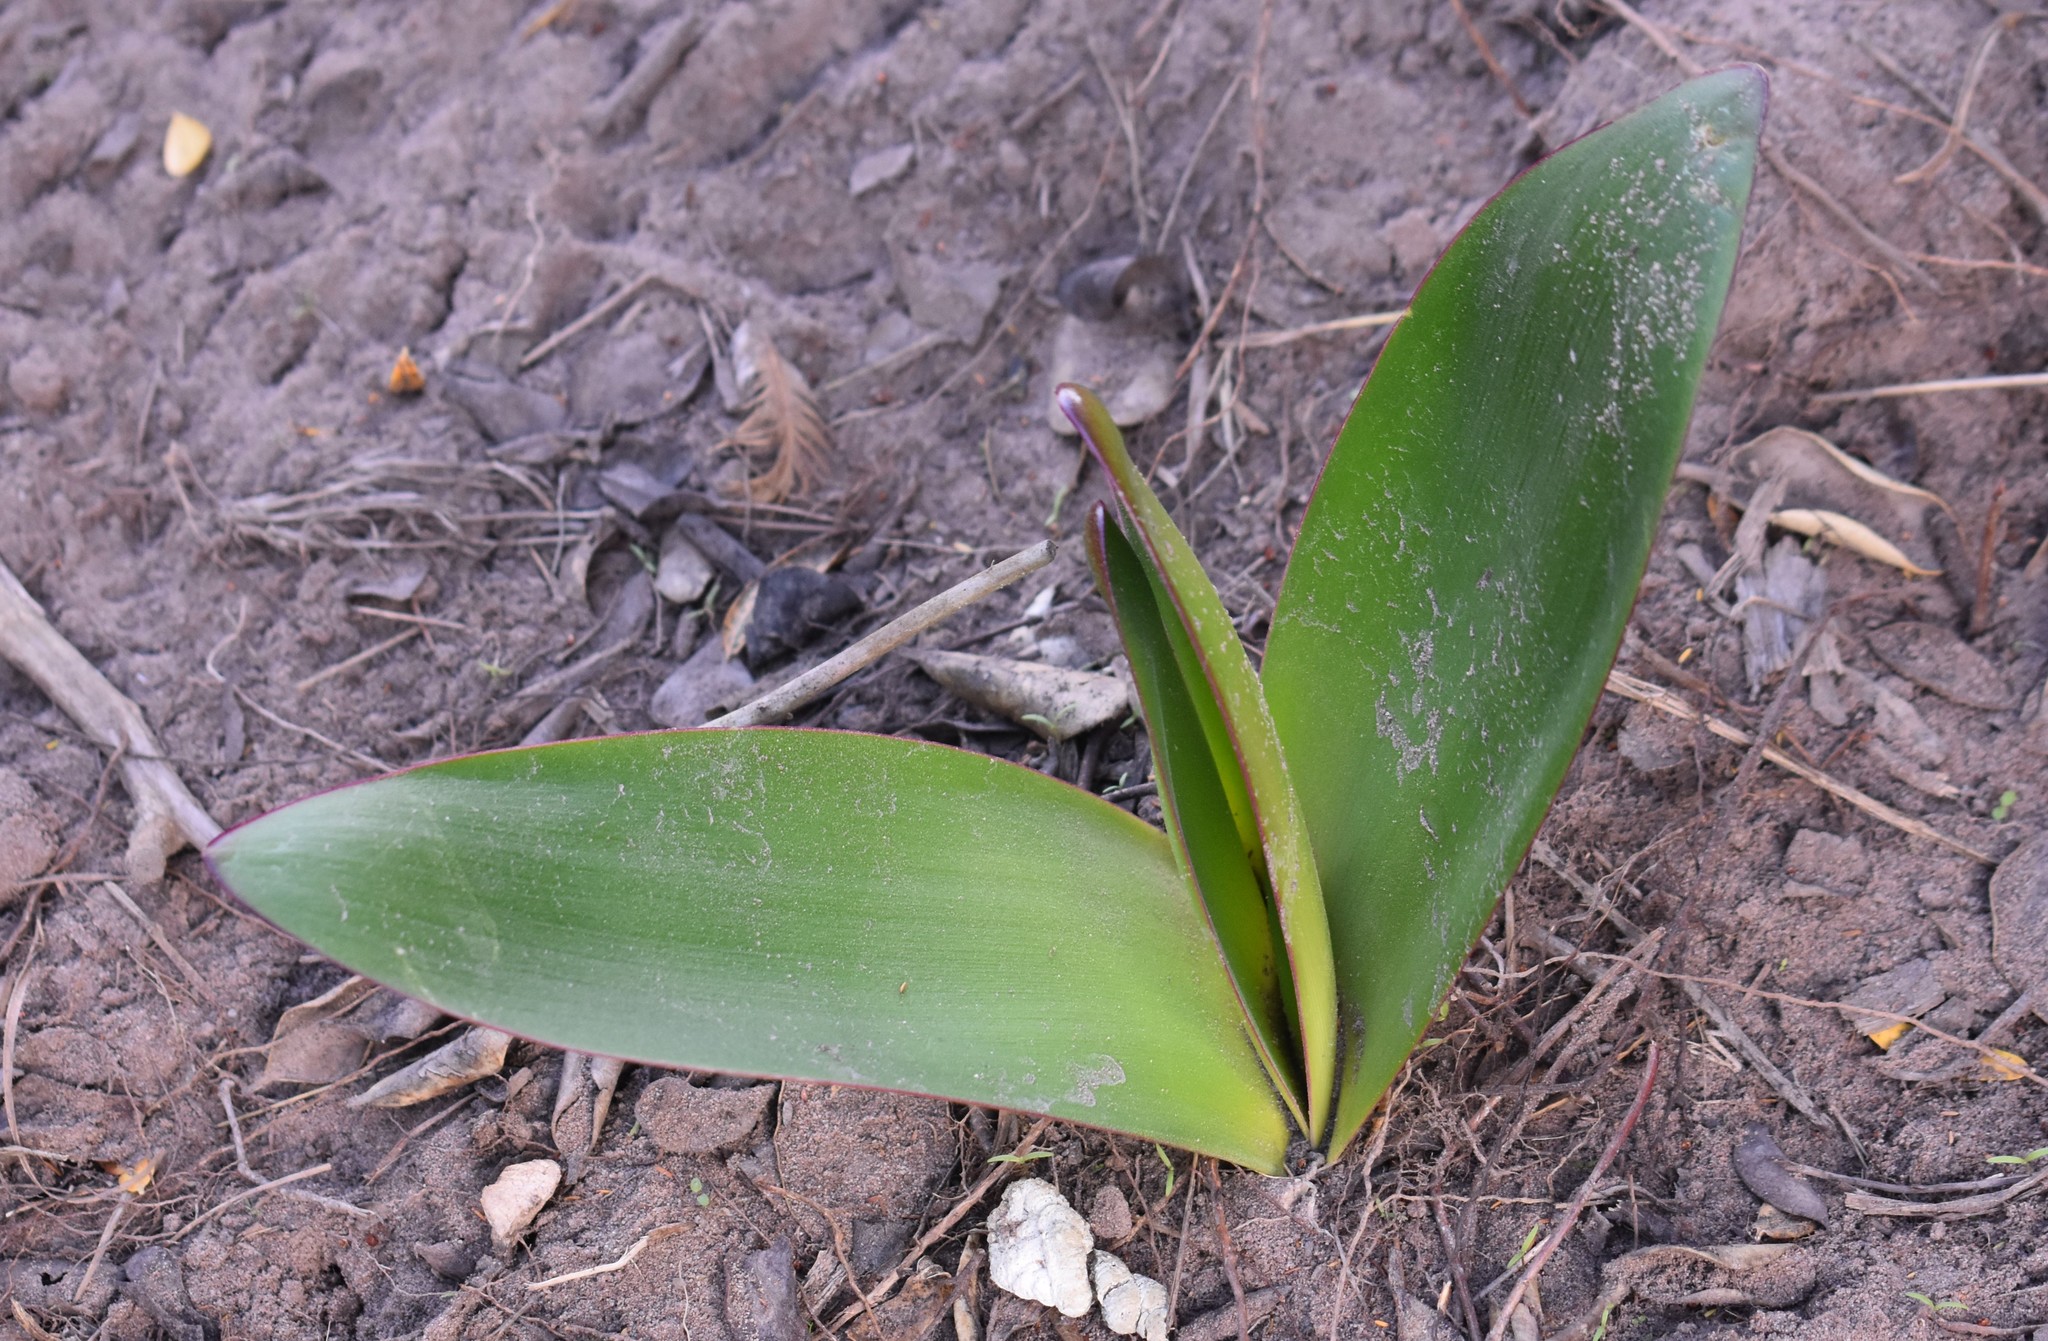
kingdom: Plantae
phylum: Tracheophyta
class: Liliopsida
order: Asparagales
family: Amaryllidaceae
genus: Brunsvigia
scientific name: Brunsvigia orientalis
